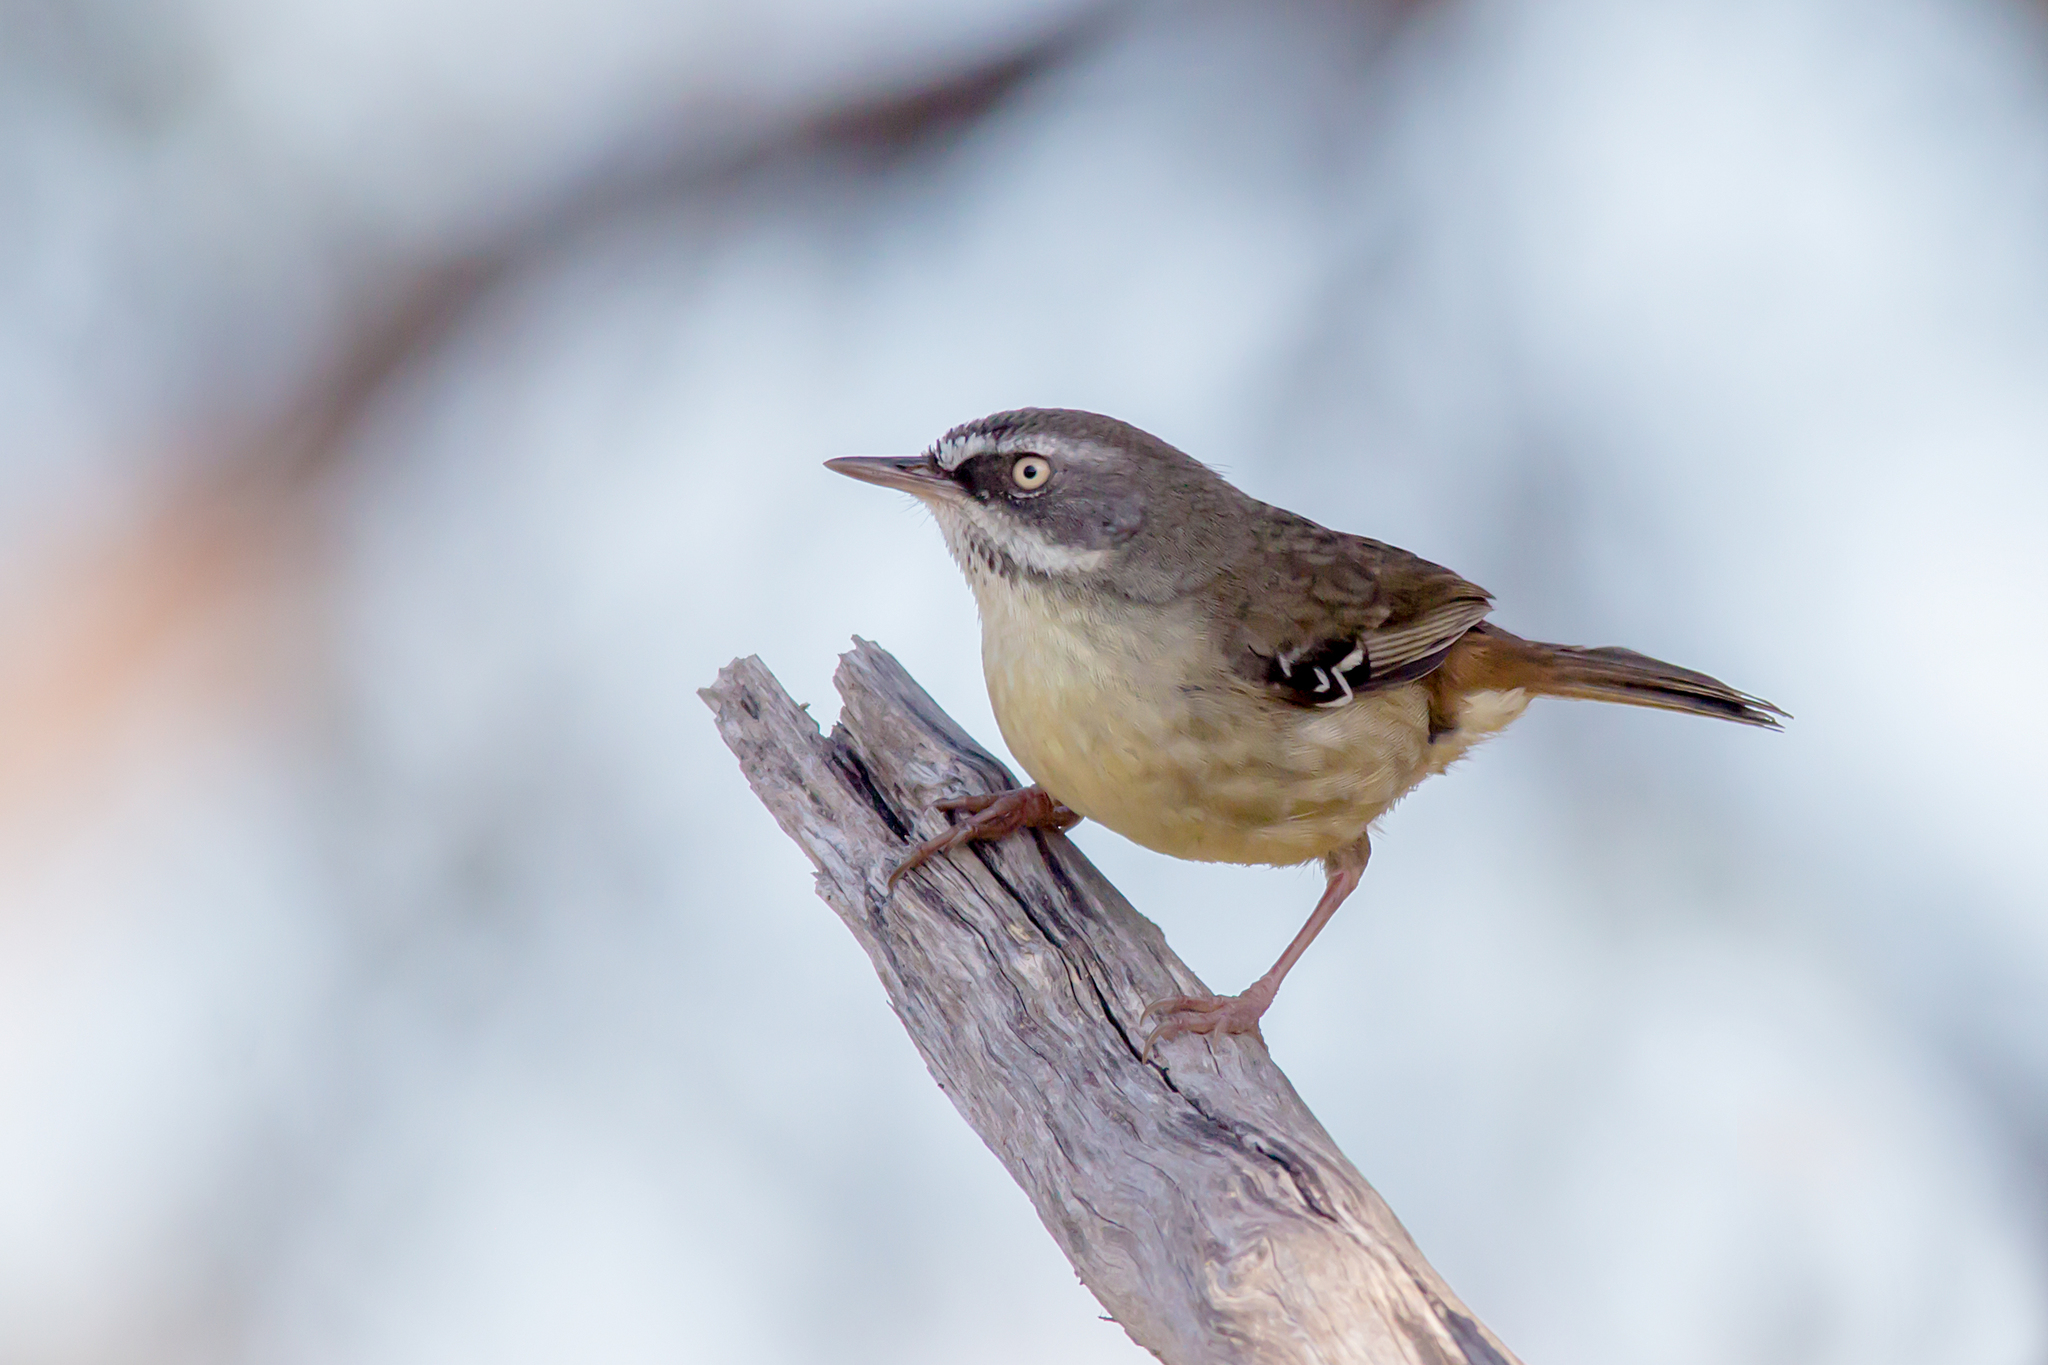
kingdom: Animalia
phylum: Chordata
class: Aves
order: Passeriformes
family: Acanthizidae
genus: Sericornis
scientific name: Sericornis frontalis
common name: White-browed scrubwren
